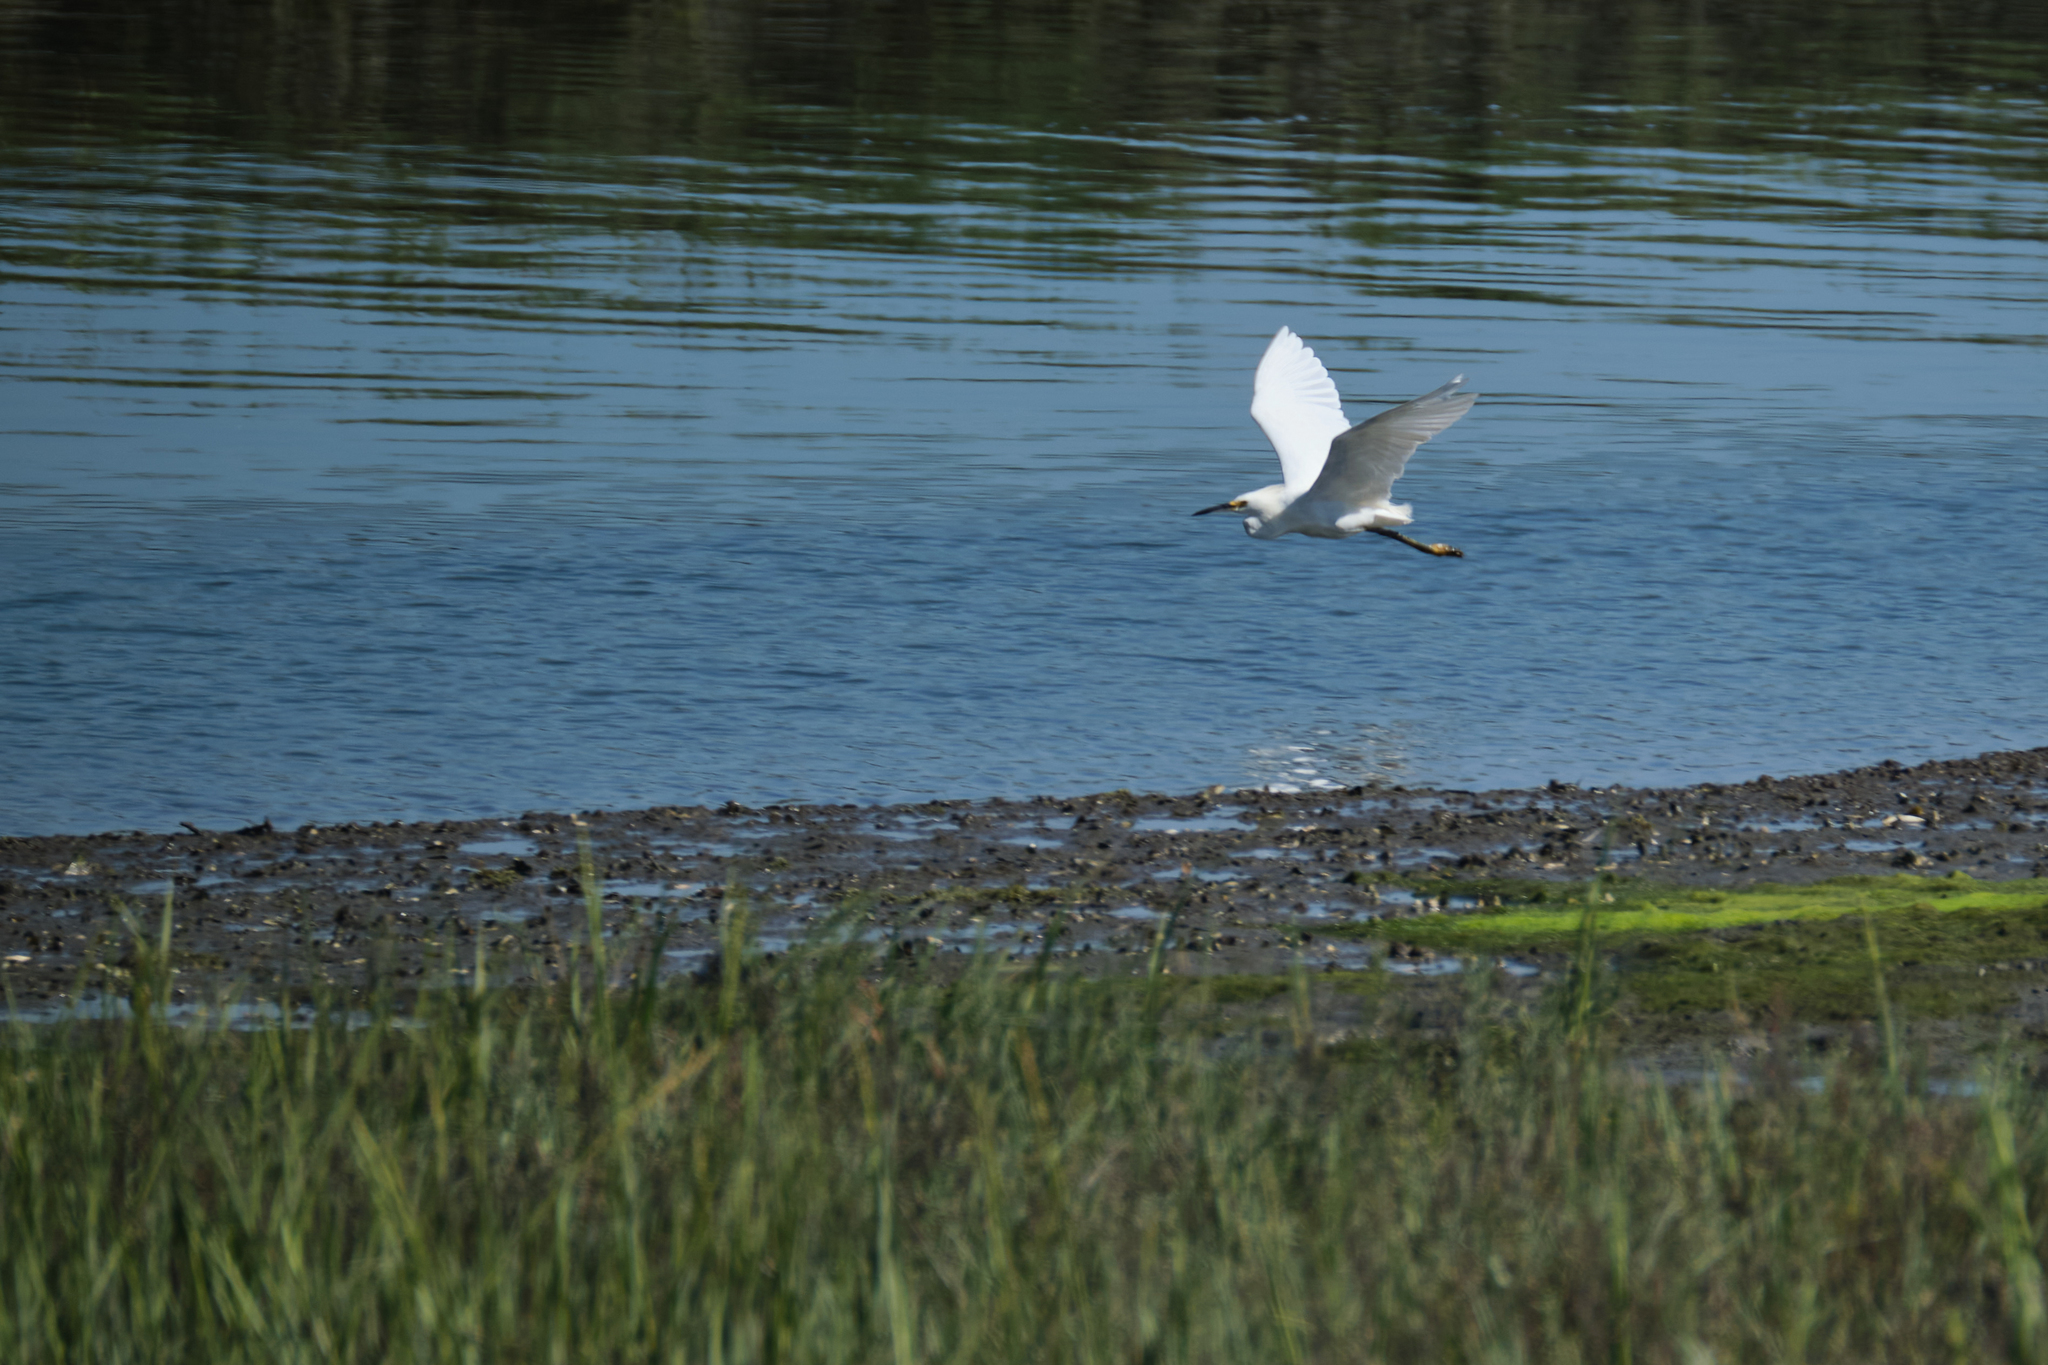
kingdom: Animalia
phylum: Chordata
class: Aves
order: Pelecaniformes
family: Ardeidae
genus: Egretta
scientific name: Egretta thula
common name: Snowy egret
